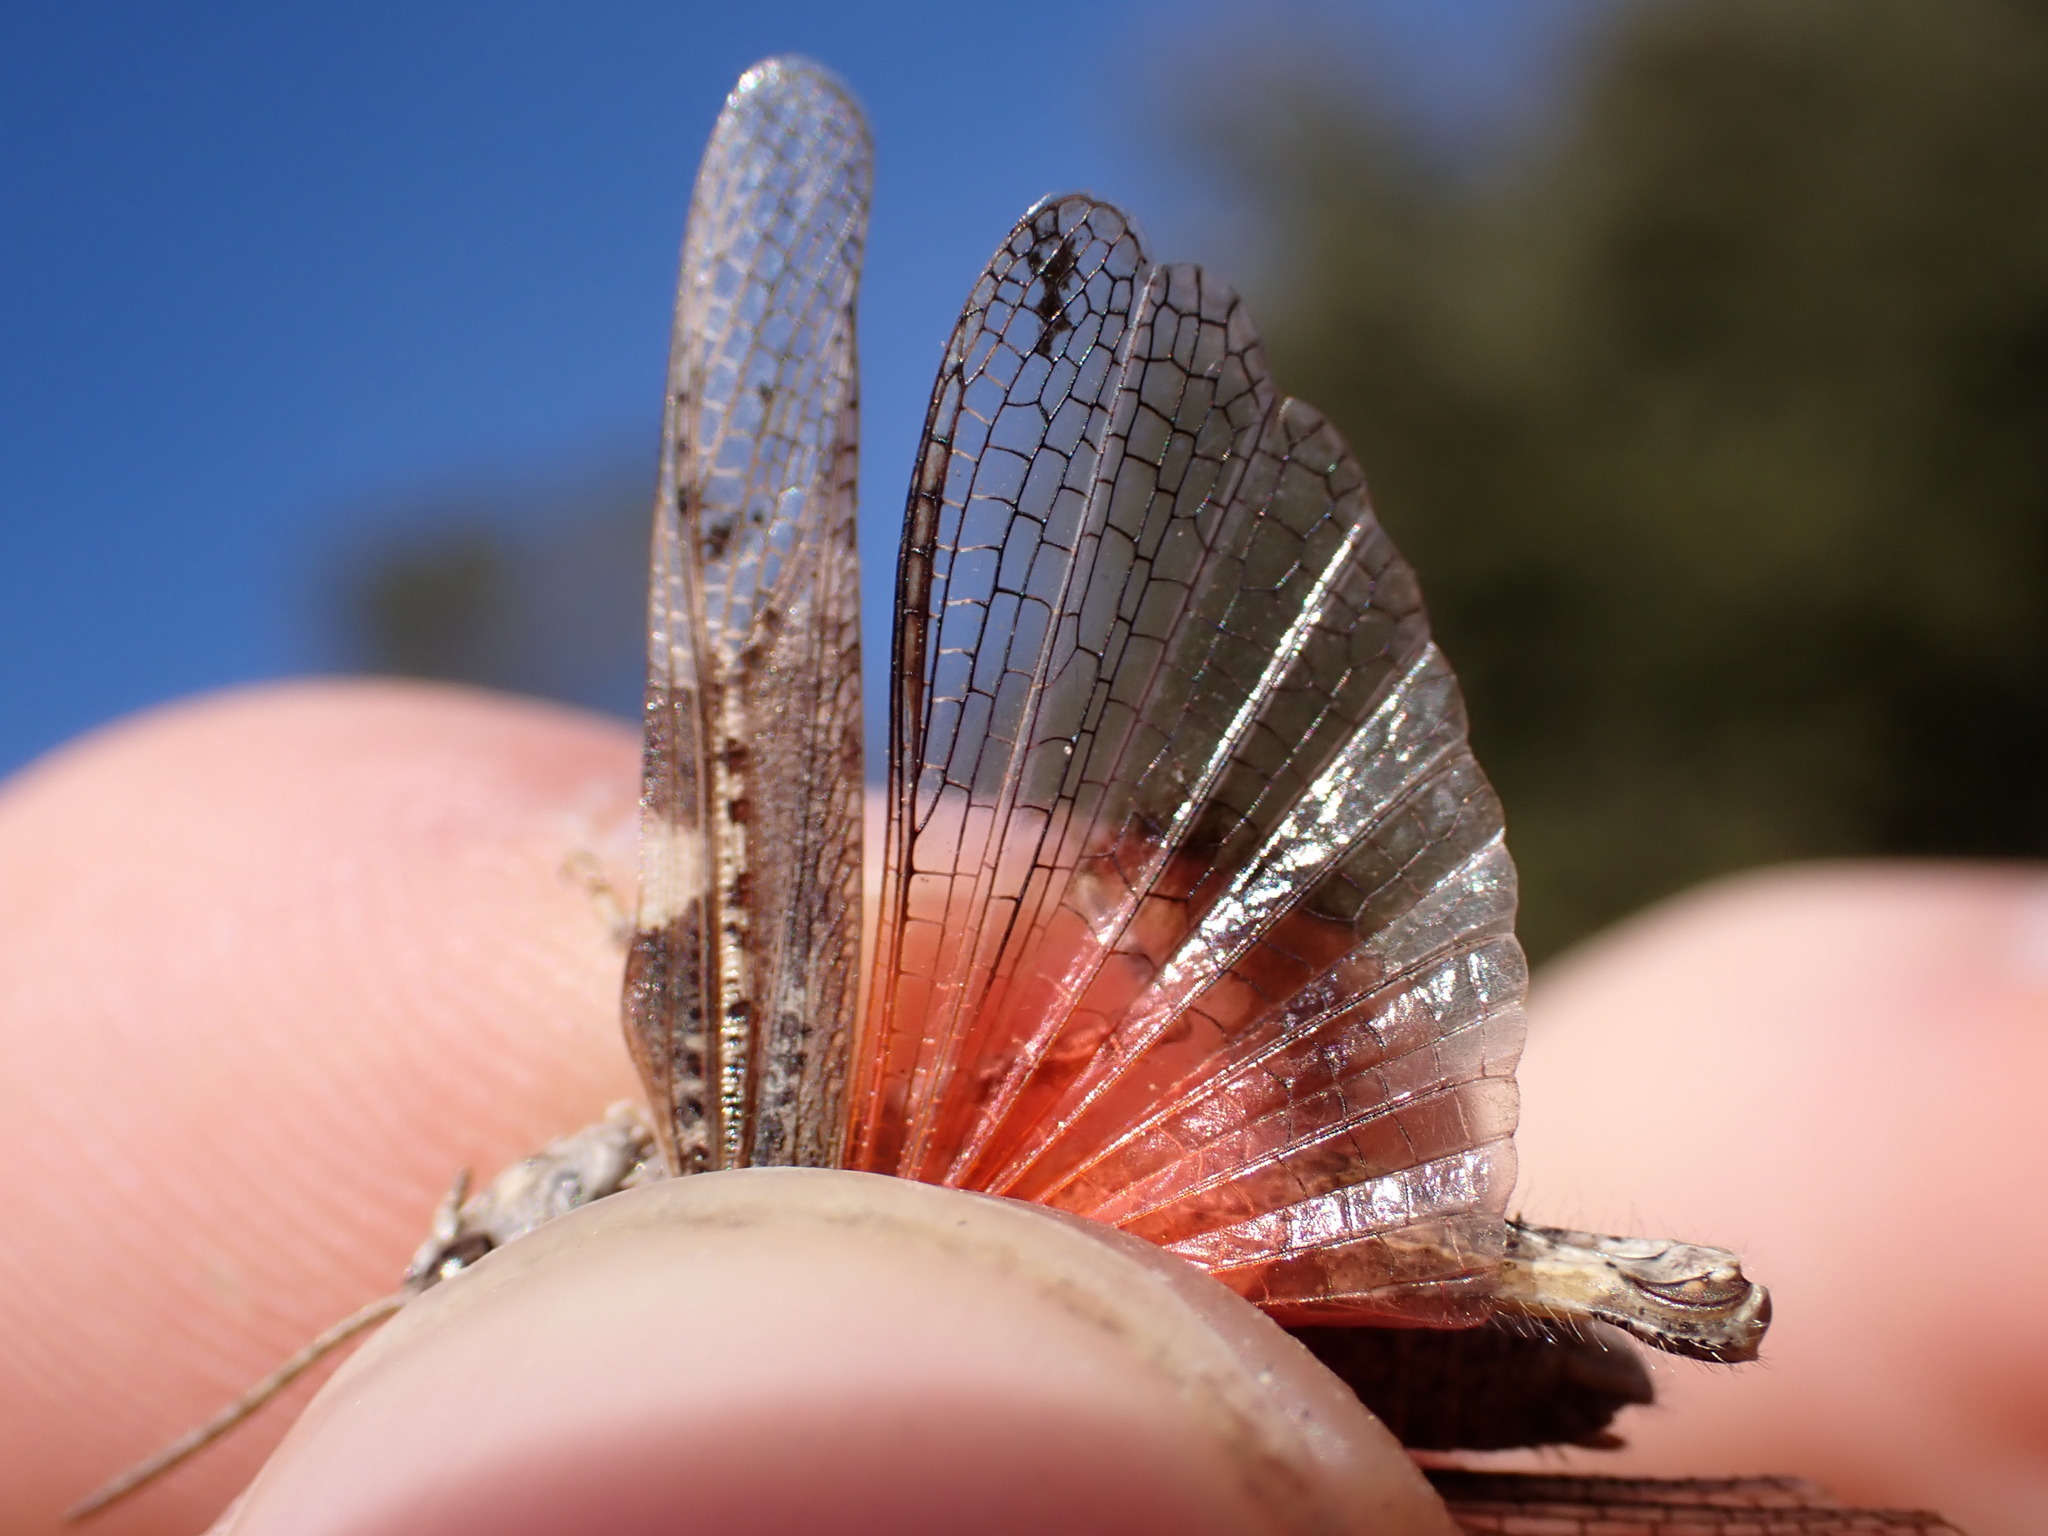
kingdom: Animalia
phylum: Arthropoda
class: Insecta
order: Orthoptera
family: Acrididae
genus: Acrotylus
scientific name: Acrotylus insubricus
